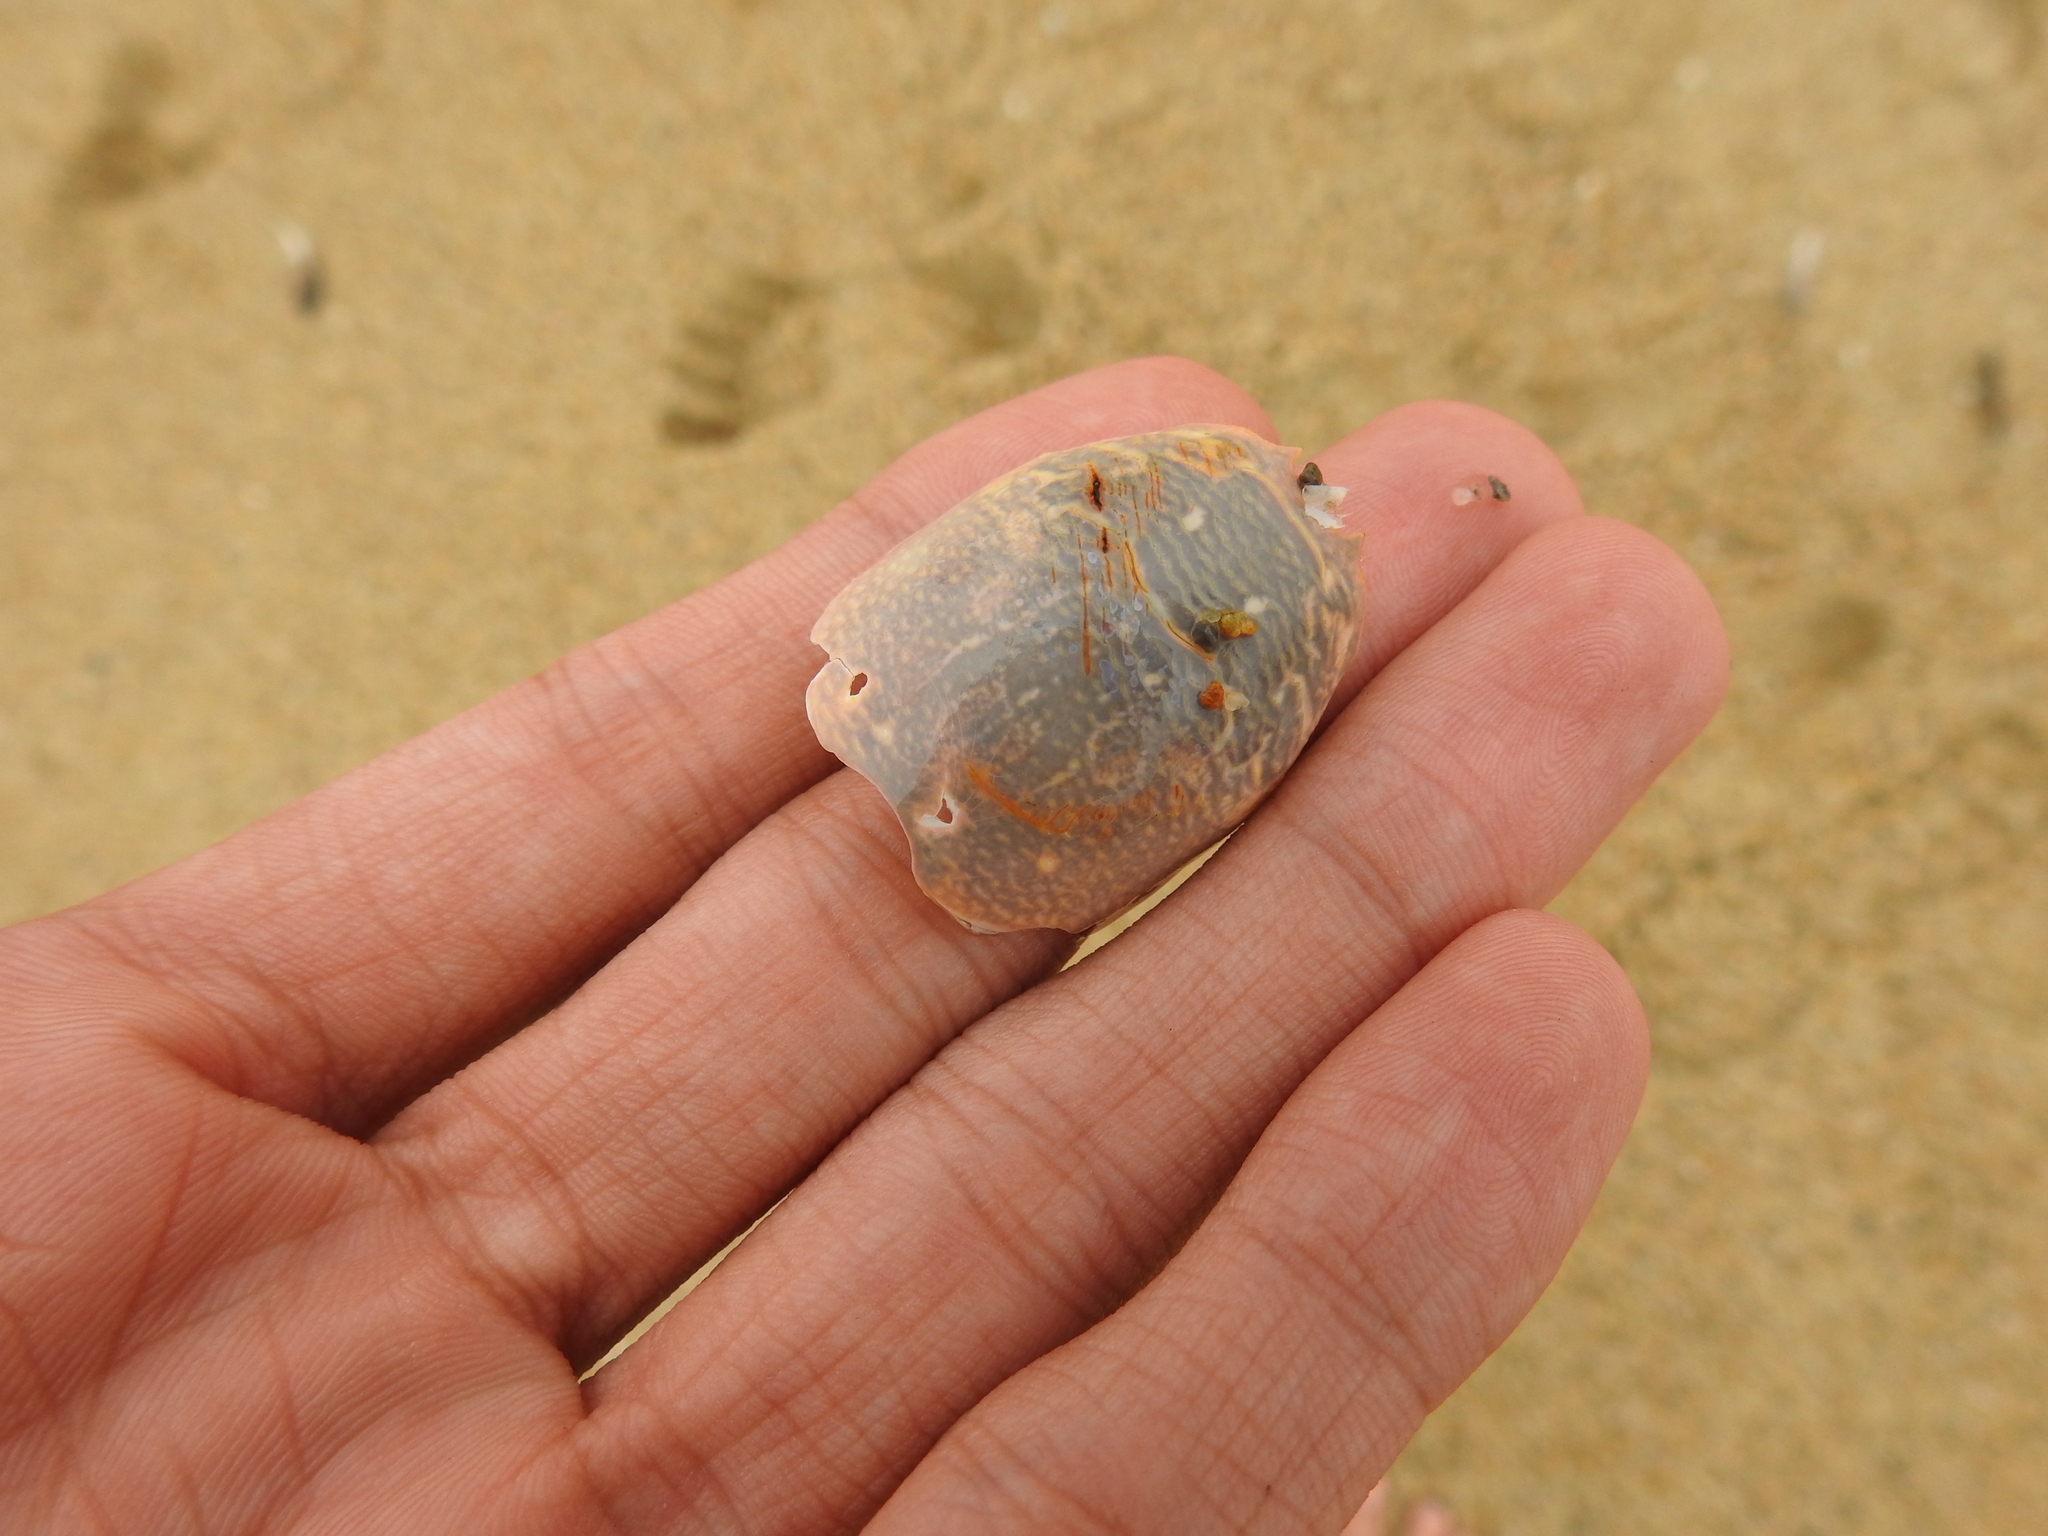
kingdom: Animalia
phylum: Arthropoda
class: Malacostraca
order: Decapoda
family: Hippidae
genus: Emerita
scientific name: Emerita analoga
